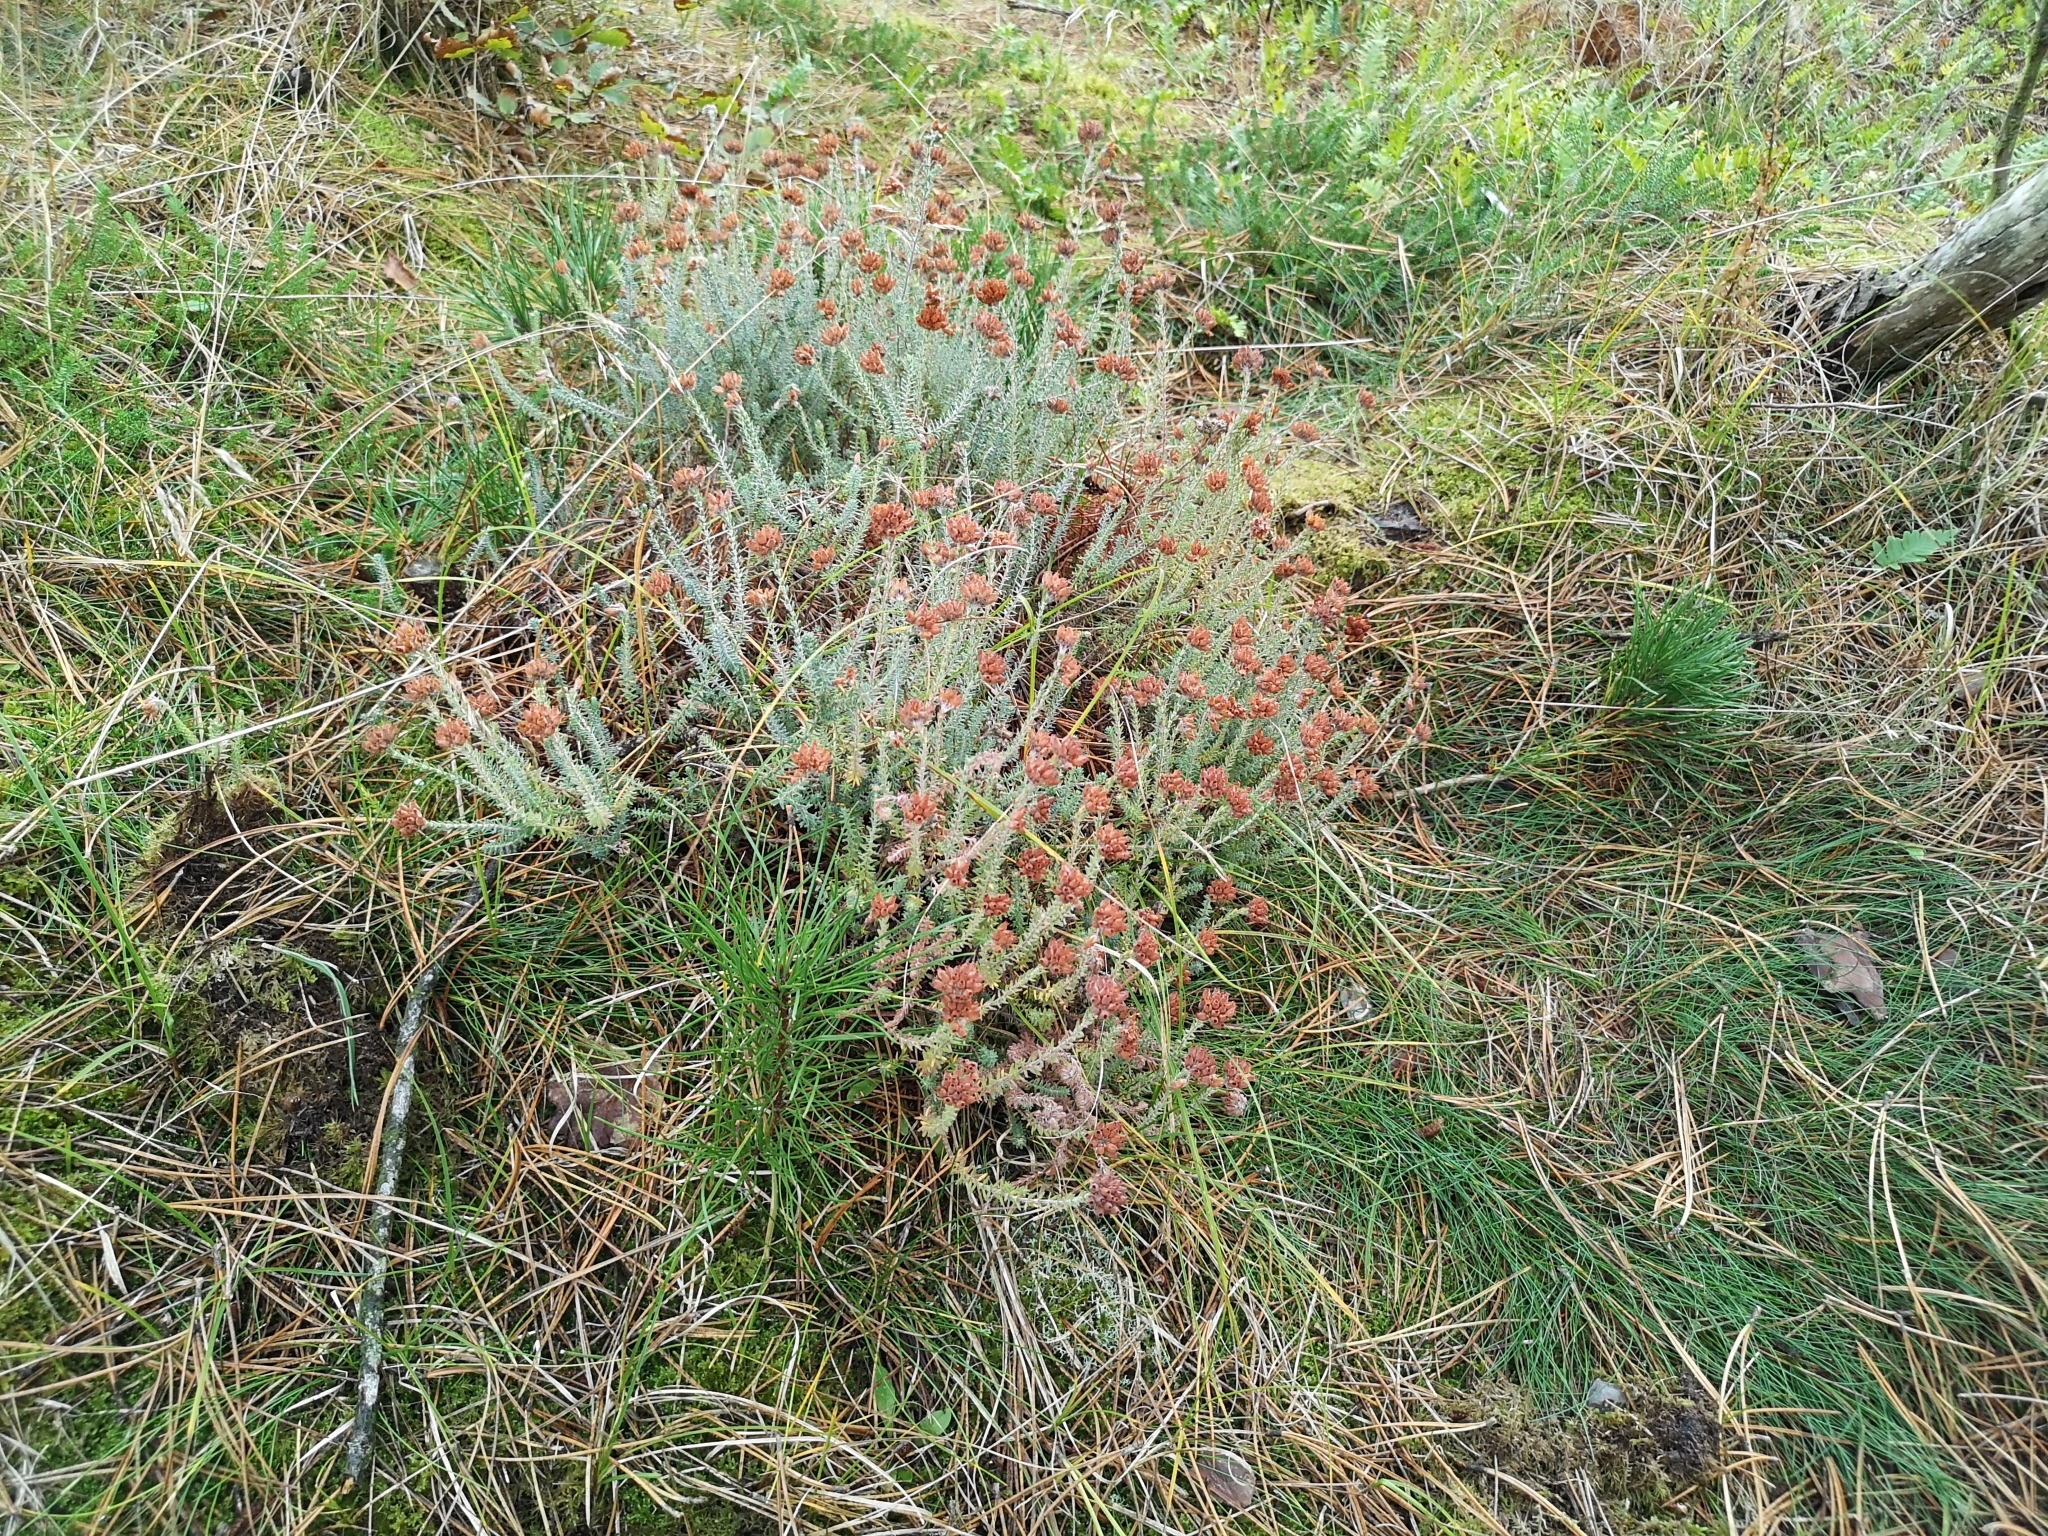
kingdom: Plantae
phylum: Tracheophyta
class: Magnoliopsida
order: Ericales
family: Ericaceae
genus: Erica
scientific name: Erica tetralix
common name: Cross-leaved heath
